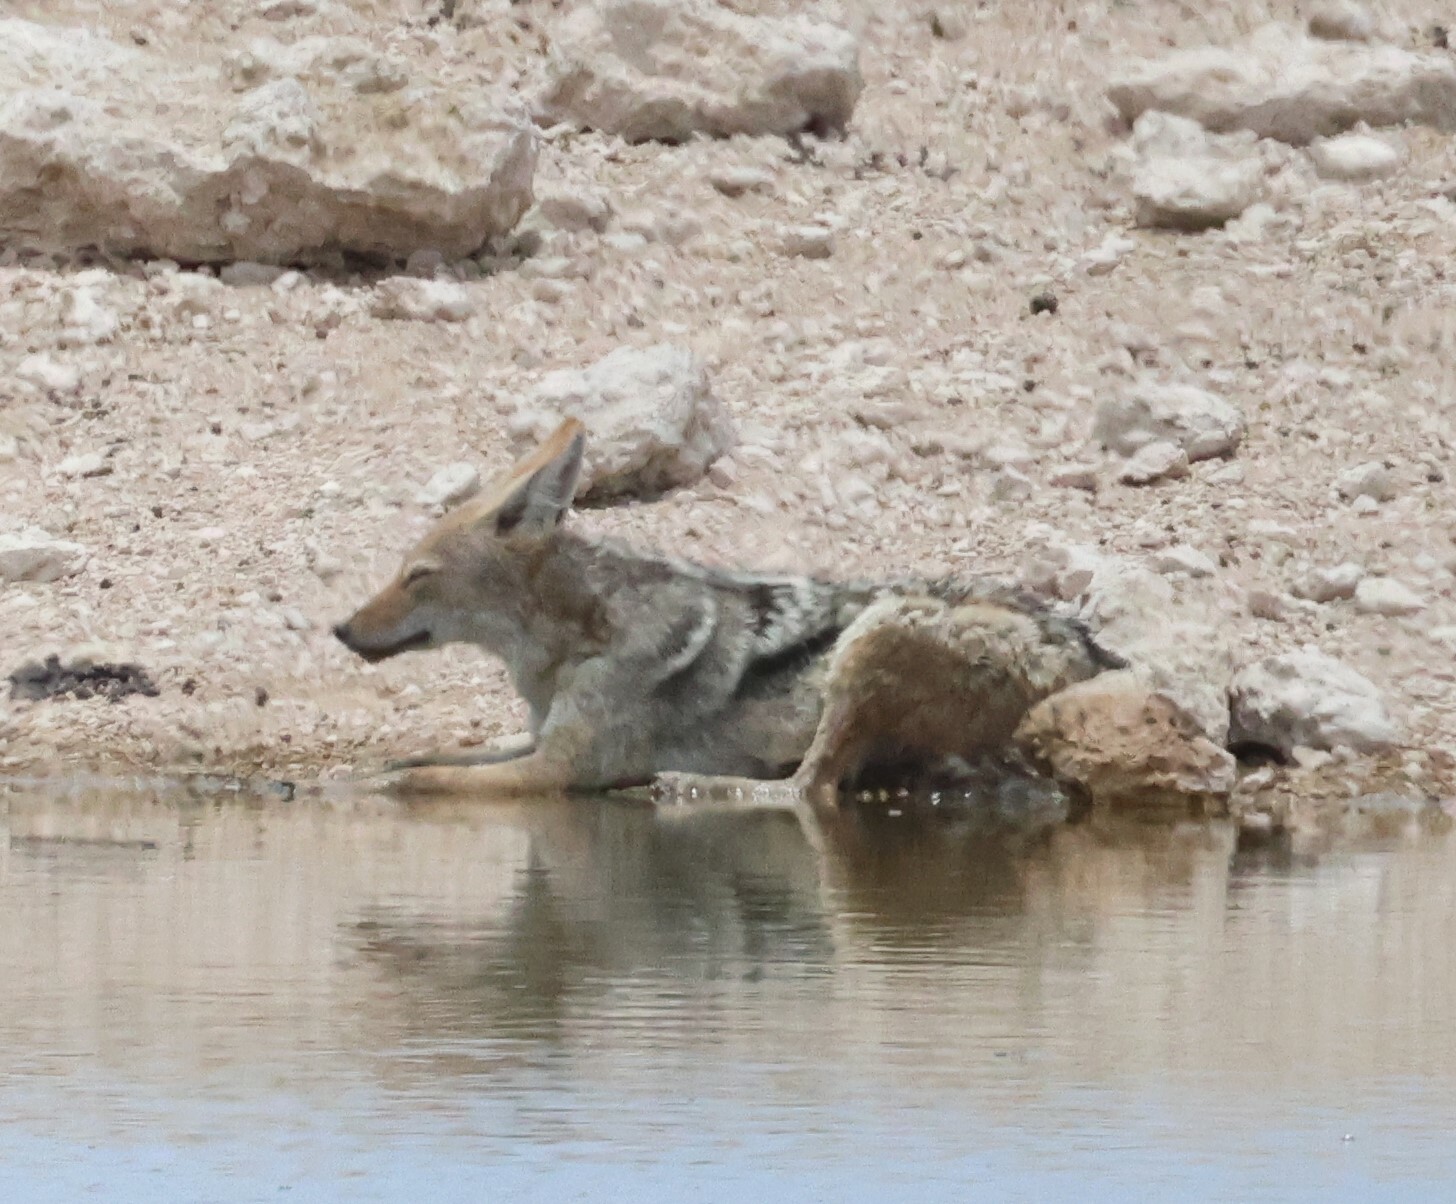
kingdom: Animalia
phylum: Chordata
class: Mammalia
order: Carnivora
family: Canidae
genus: Lupulella
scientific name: Lupulella
